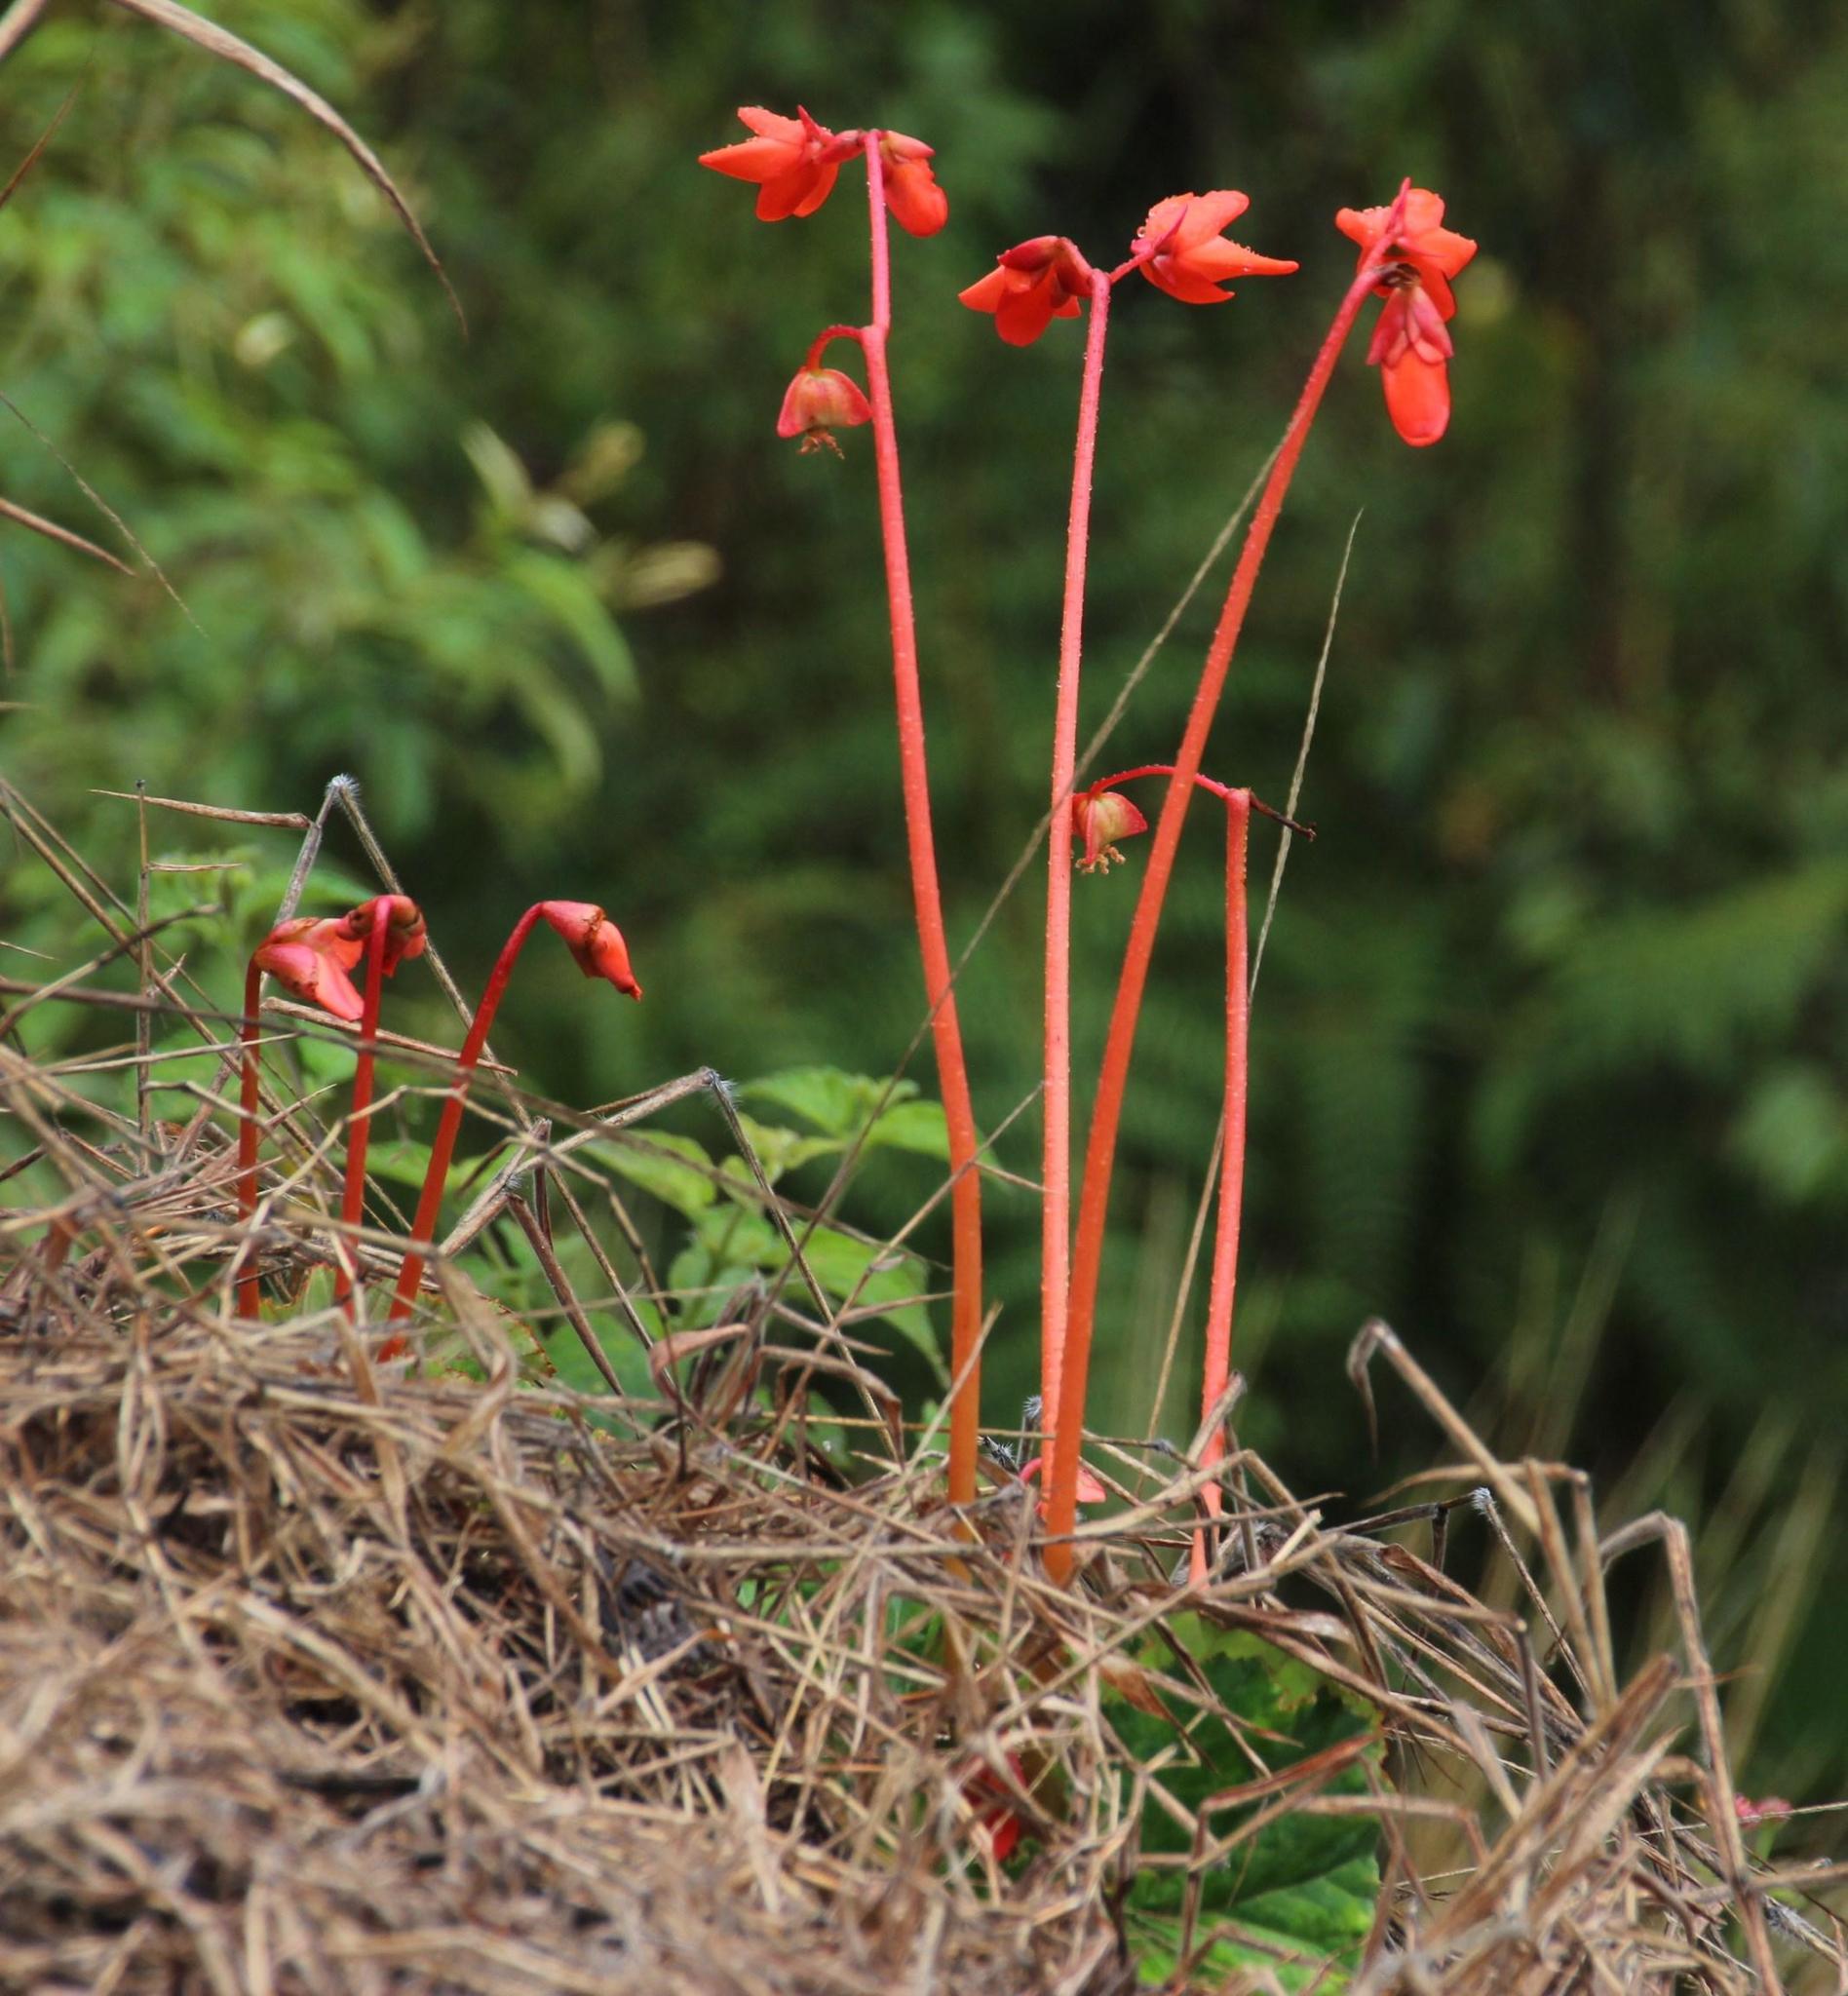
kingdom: Plantae
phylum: Tracheophyta
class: Magnoliopsida
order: Cucurbitales
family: Begoniaceae
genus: Begonia
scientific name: Begonia veitchii
